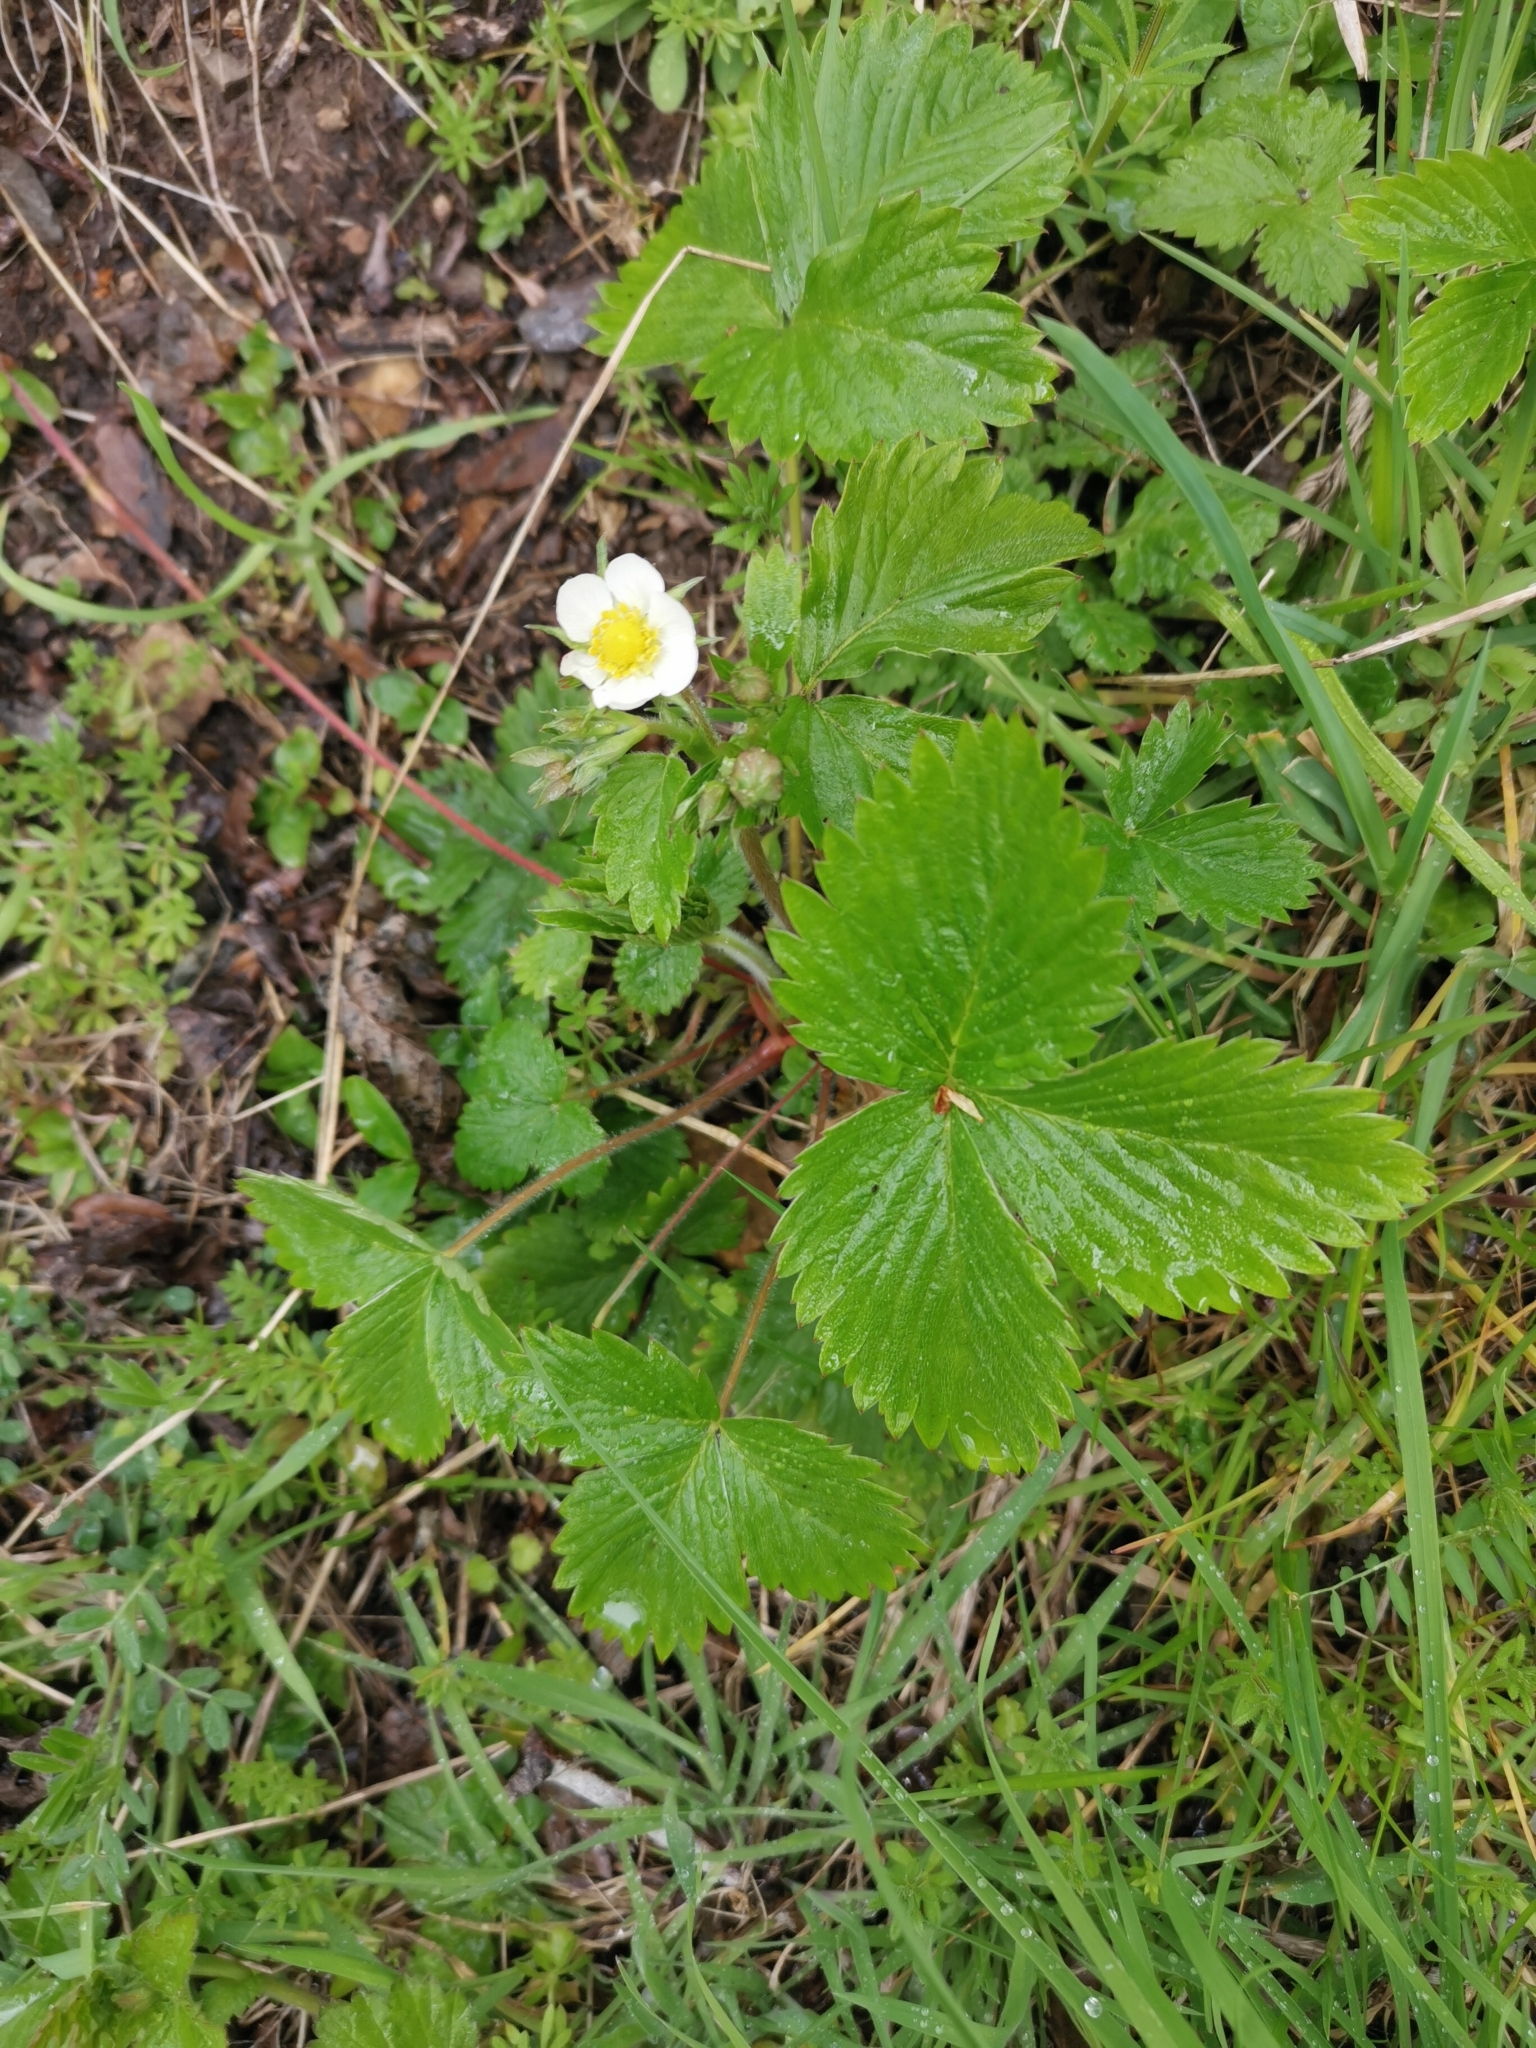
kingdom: Plantae
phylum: Tracheophyta
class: Magnoliopsida
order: Rosales
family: Rosaceae
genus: Fragaria
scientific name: Fragaria vesca
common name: Wild strawberry
